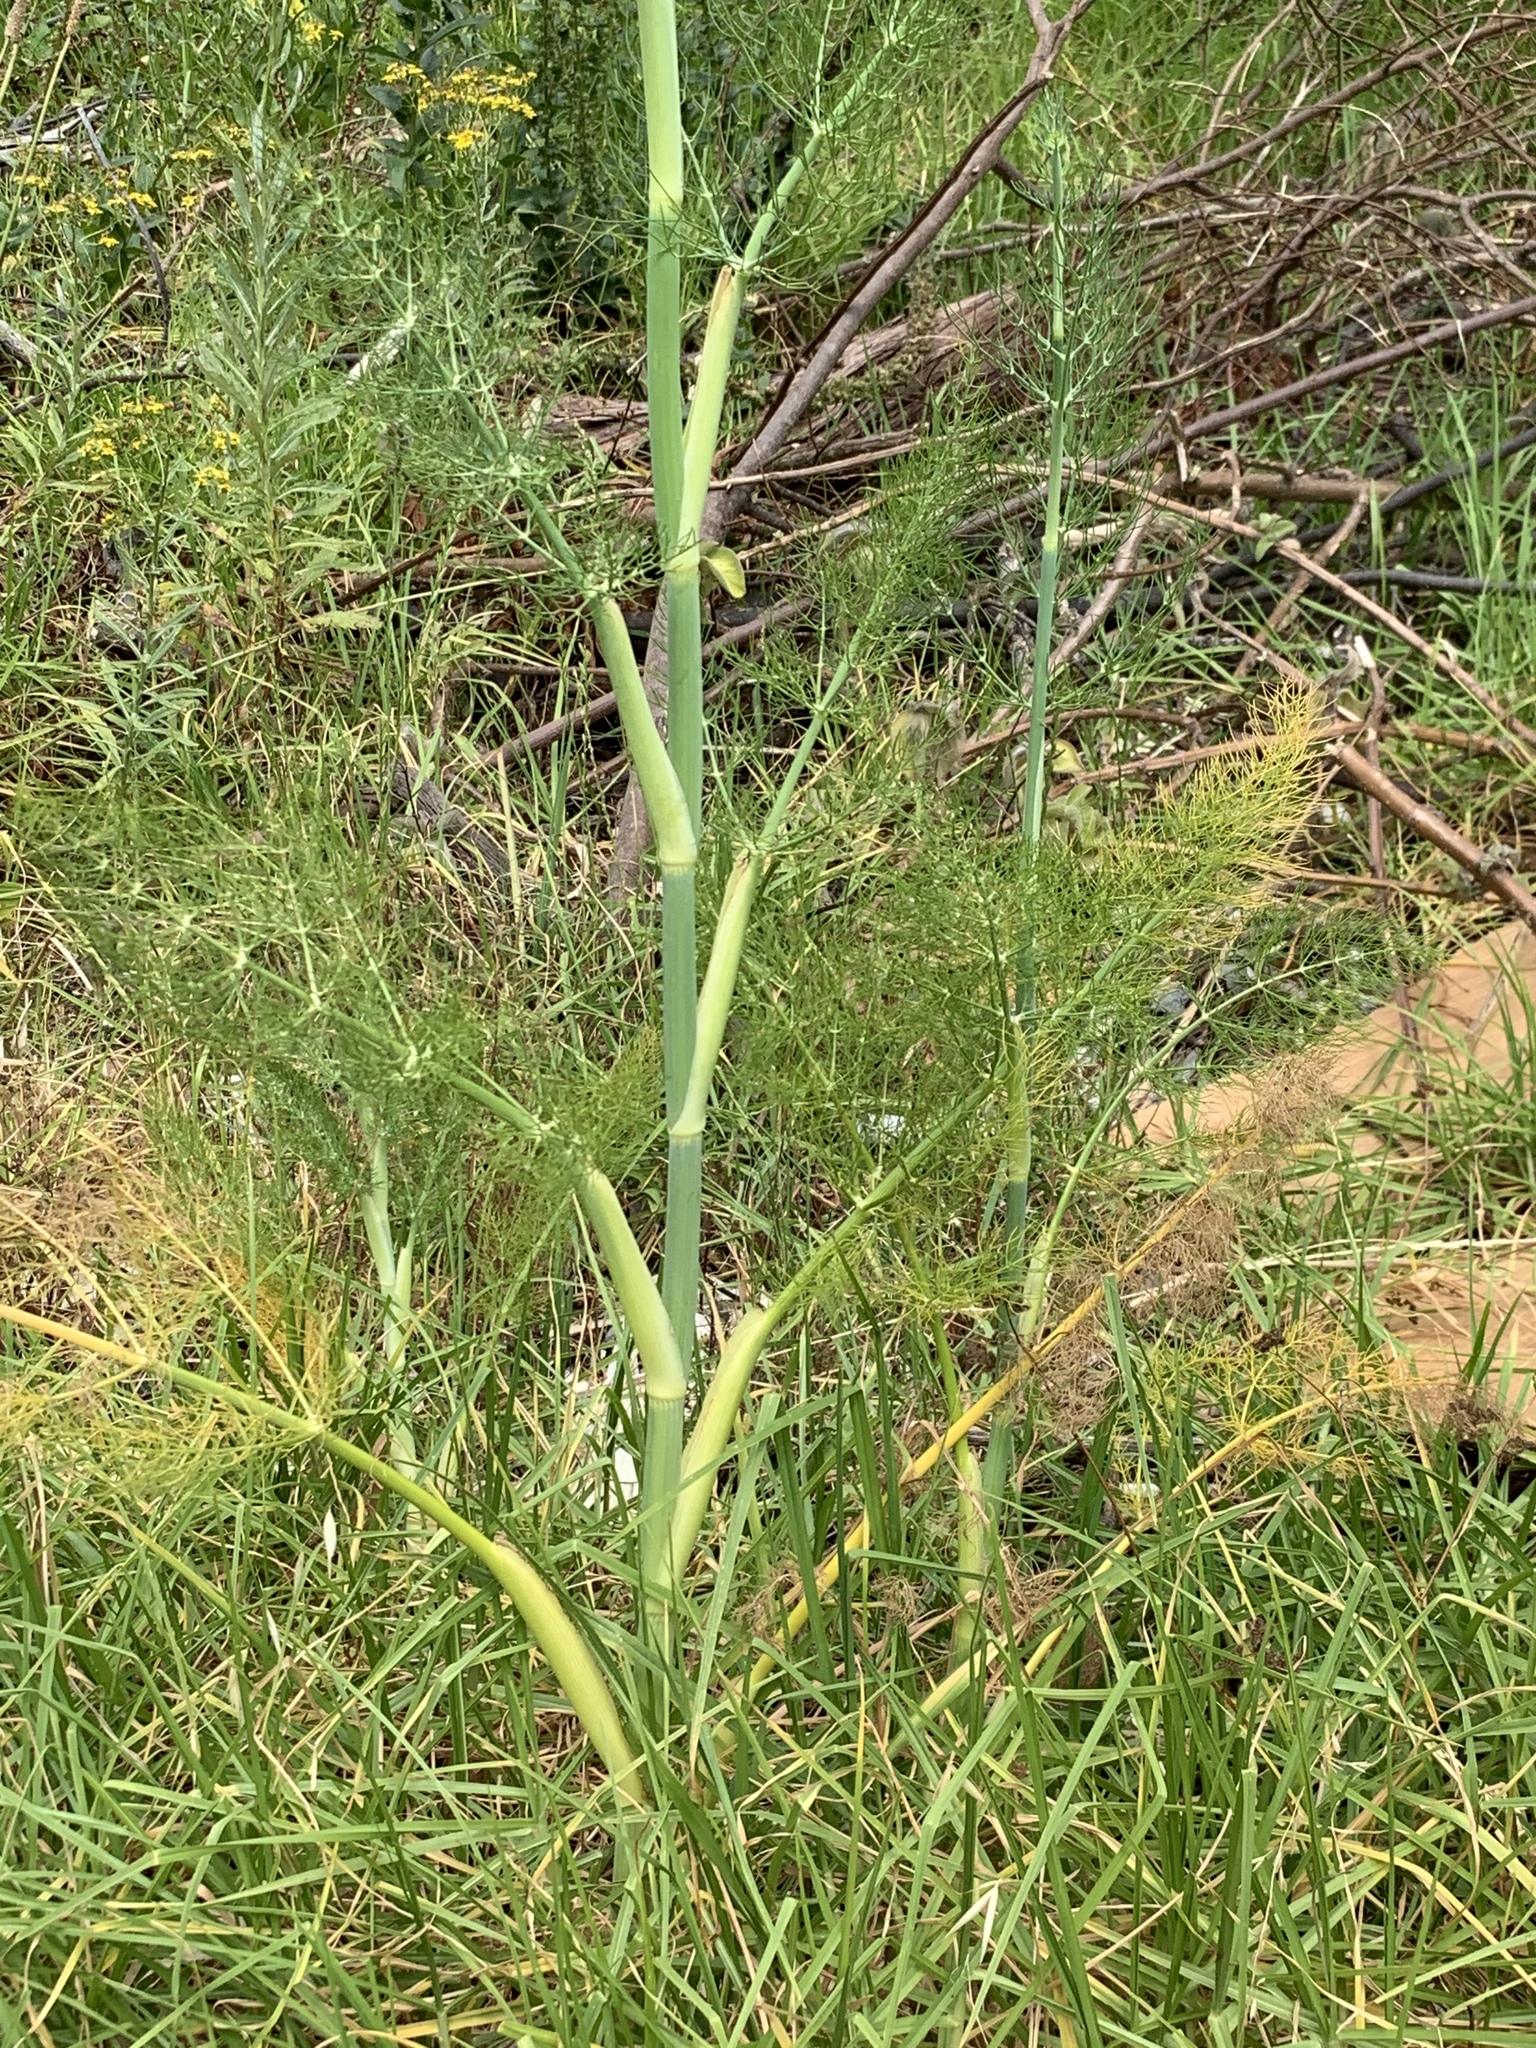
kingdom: Plantae
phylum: Tracheophyta
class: Magnoliopsida
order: Apiales
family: Apiaceae
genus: Foeniculum
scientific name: Foeniculum vulgare
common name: Fennel
